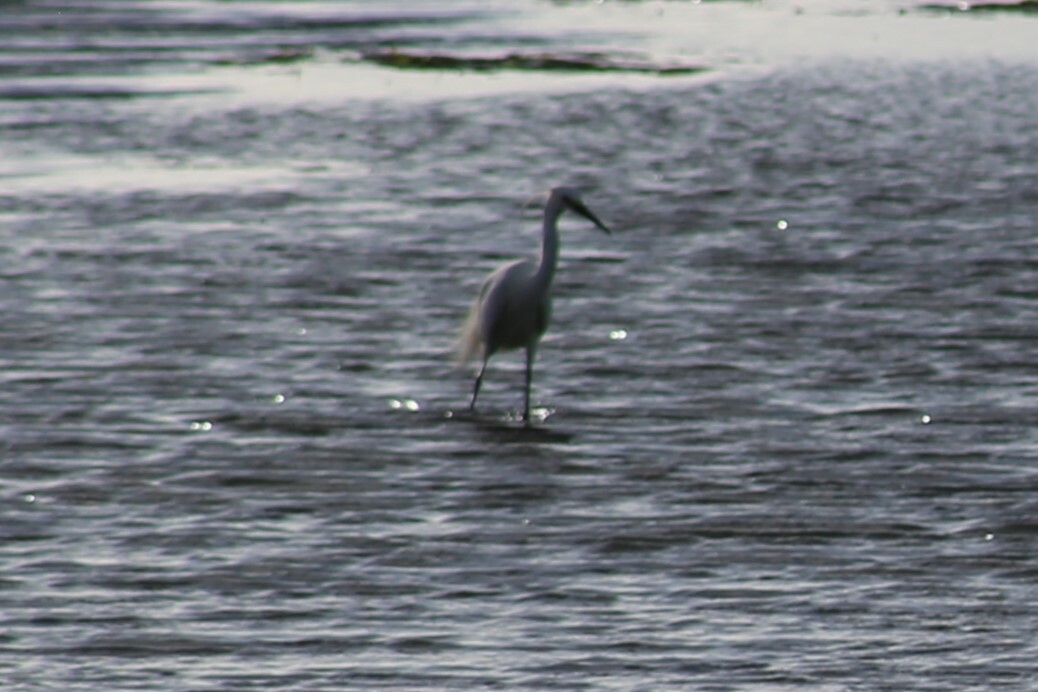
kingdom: Animalia
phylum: Chordata
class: Aves
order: Pelecaniformes
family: Ardeidae
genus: Egretta
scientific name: Egretta garzetta
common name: Little egret
